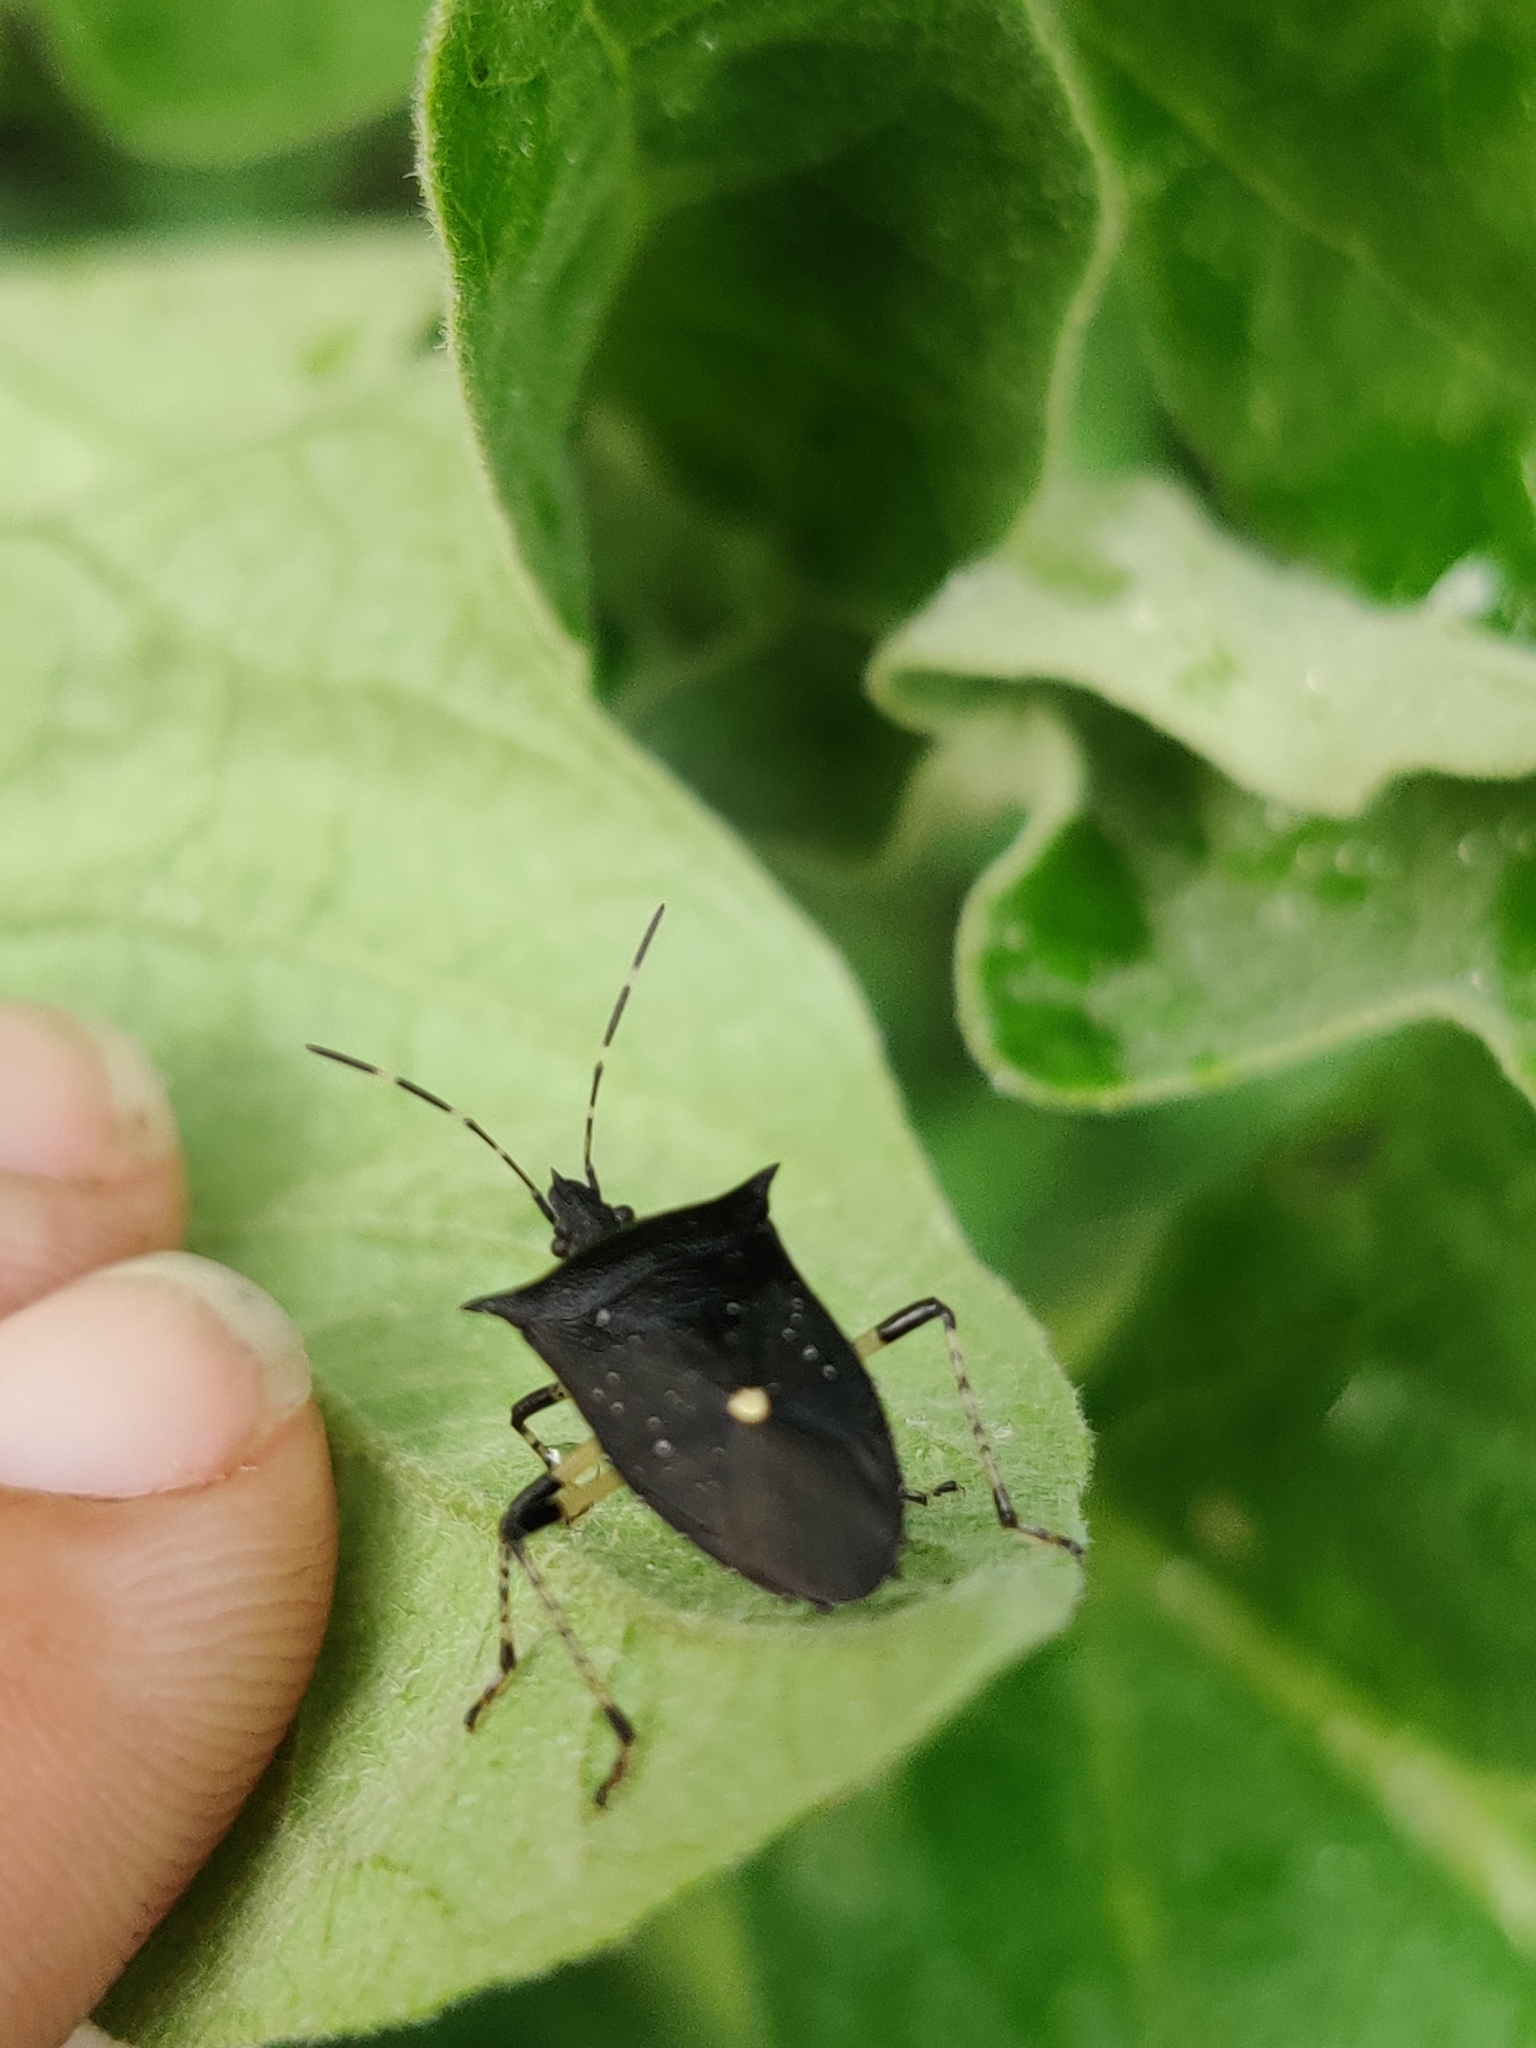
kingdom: Animalia
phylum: Arthropoda
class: Insecta
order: Hemiptera
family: Pentatomidae
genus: Proxys
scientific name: Proxys punctulatus
